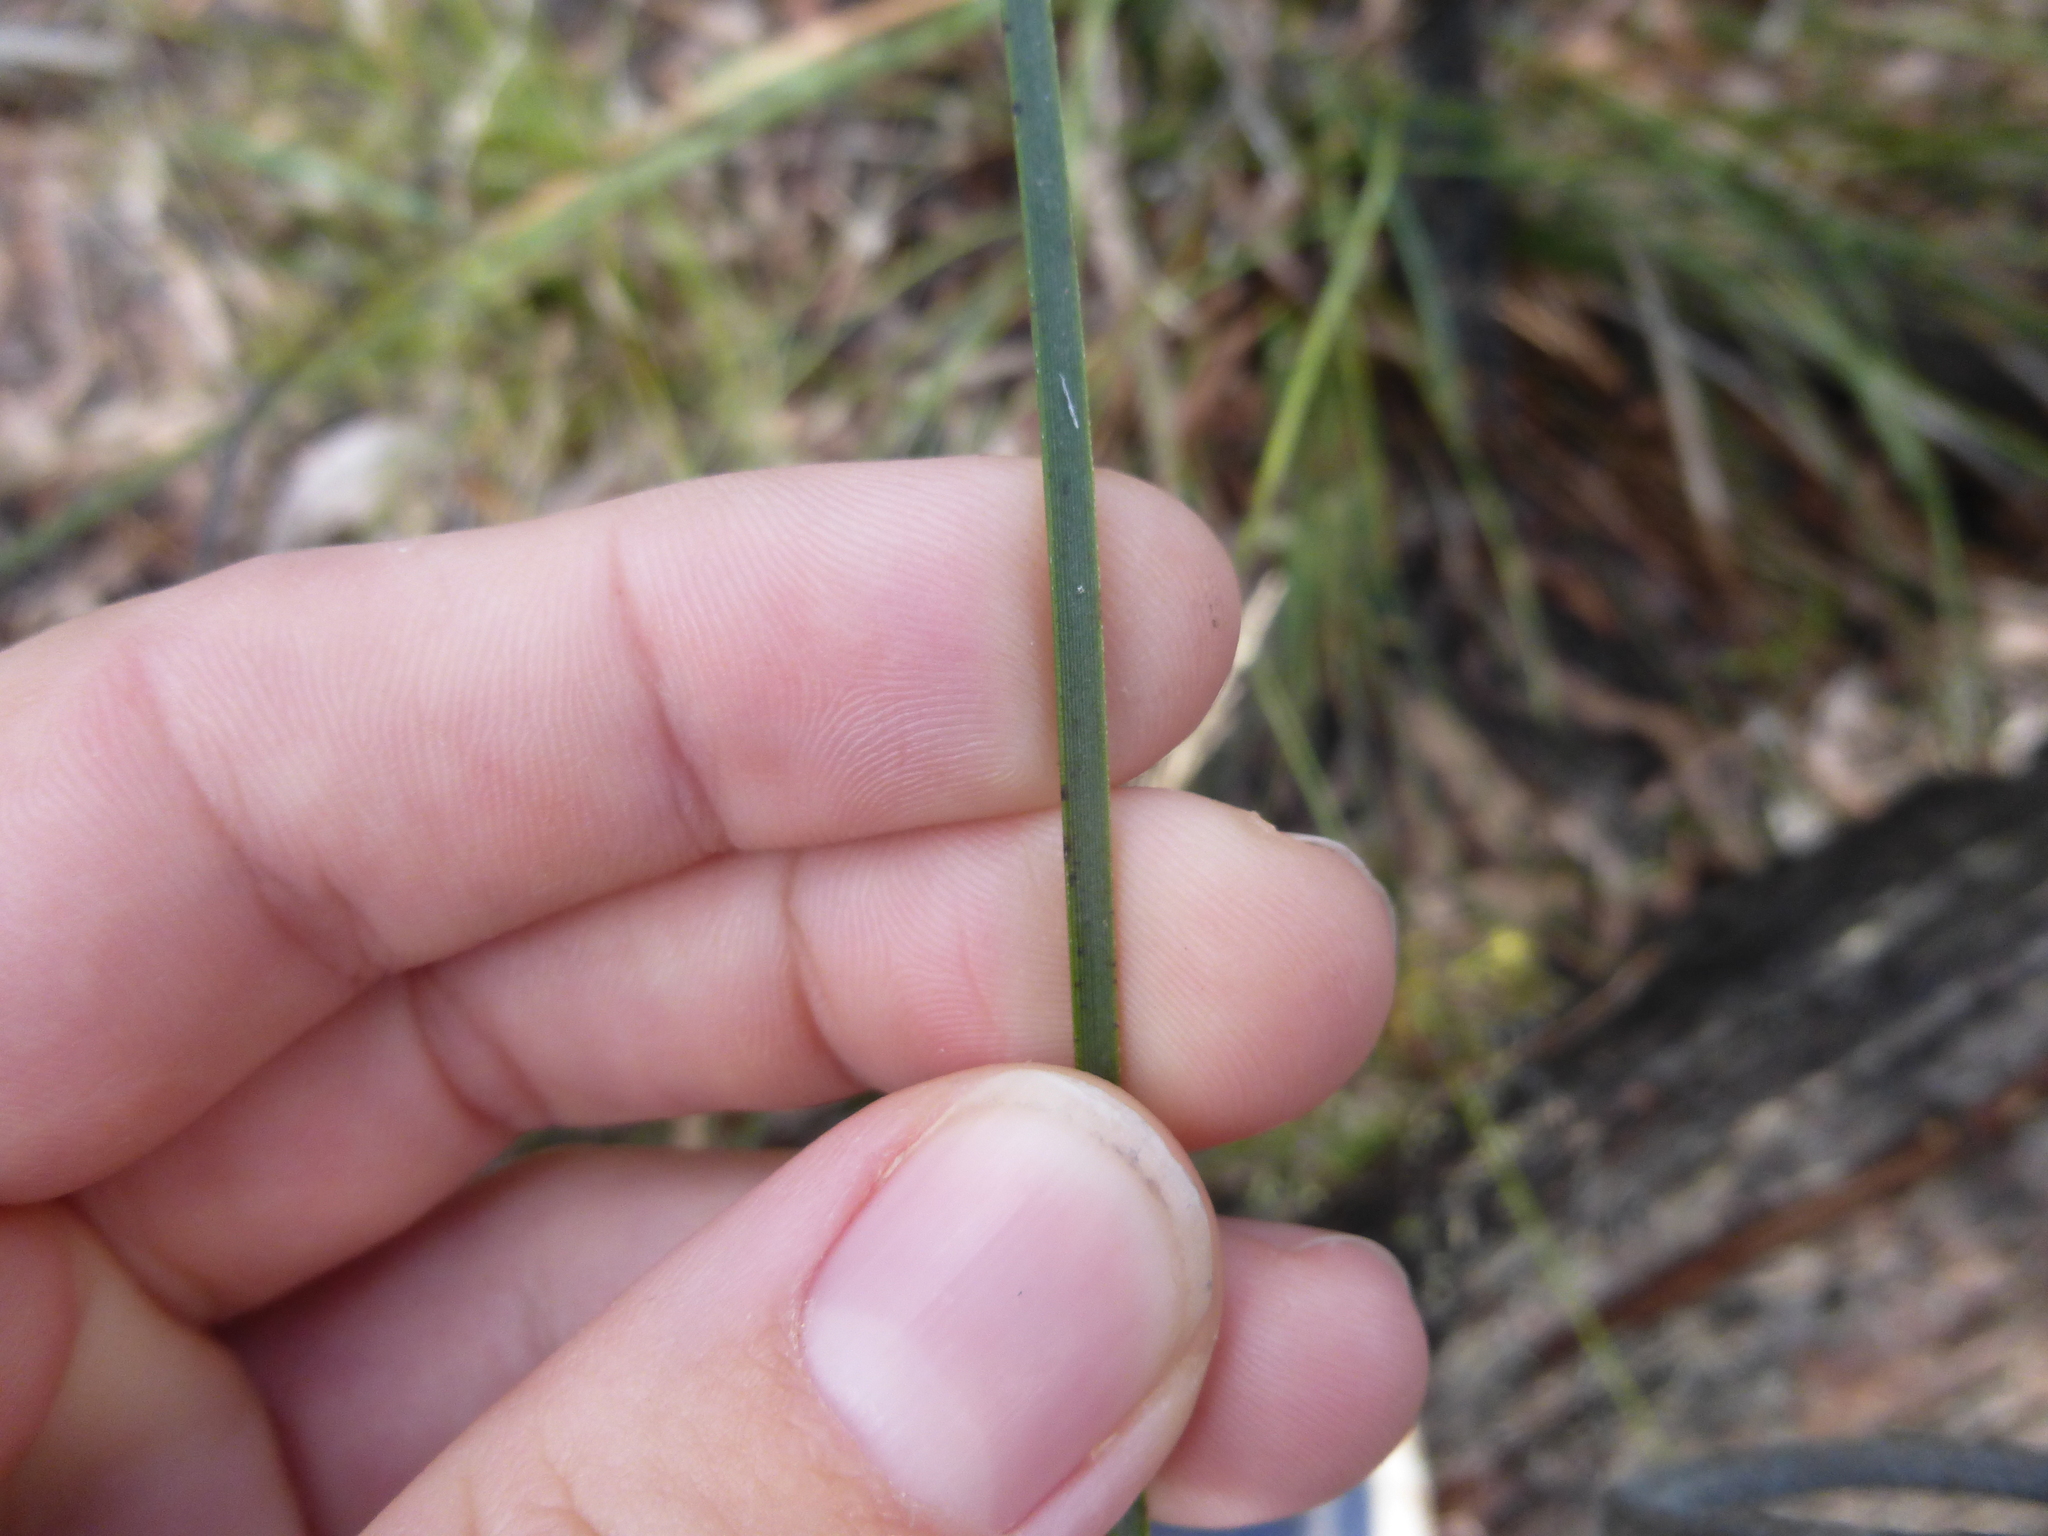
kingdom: Plantae
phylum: Tracheophyta
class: Liliopsida
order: Asparagales
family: Asphodelaceae
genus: Xanthorrhoea
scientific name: Xanthorrhoea minor
